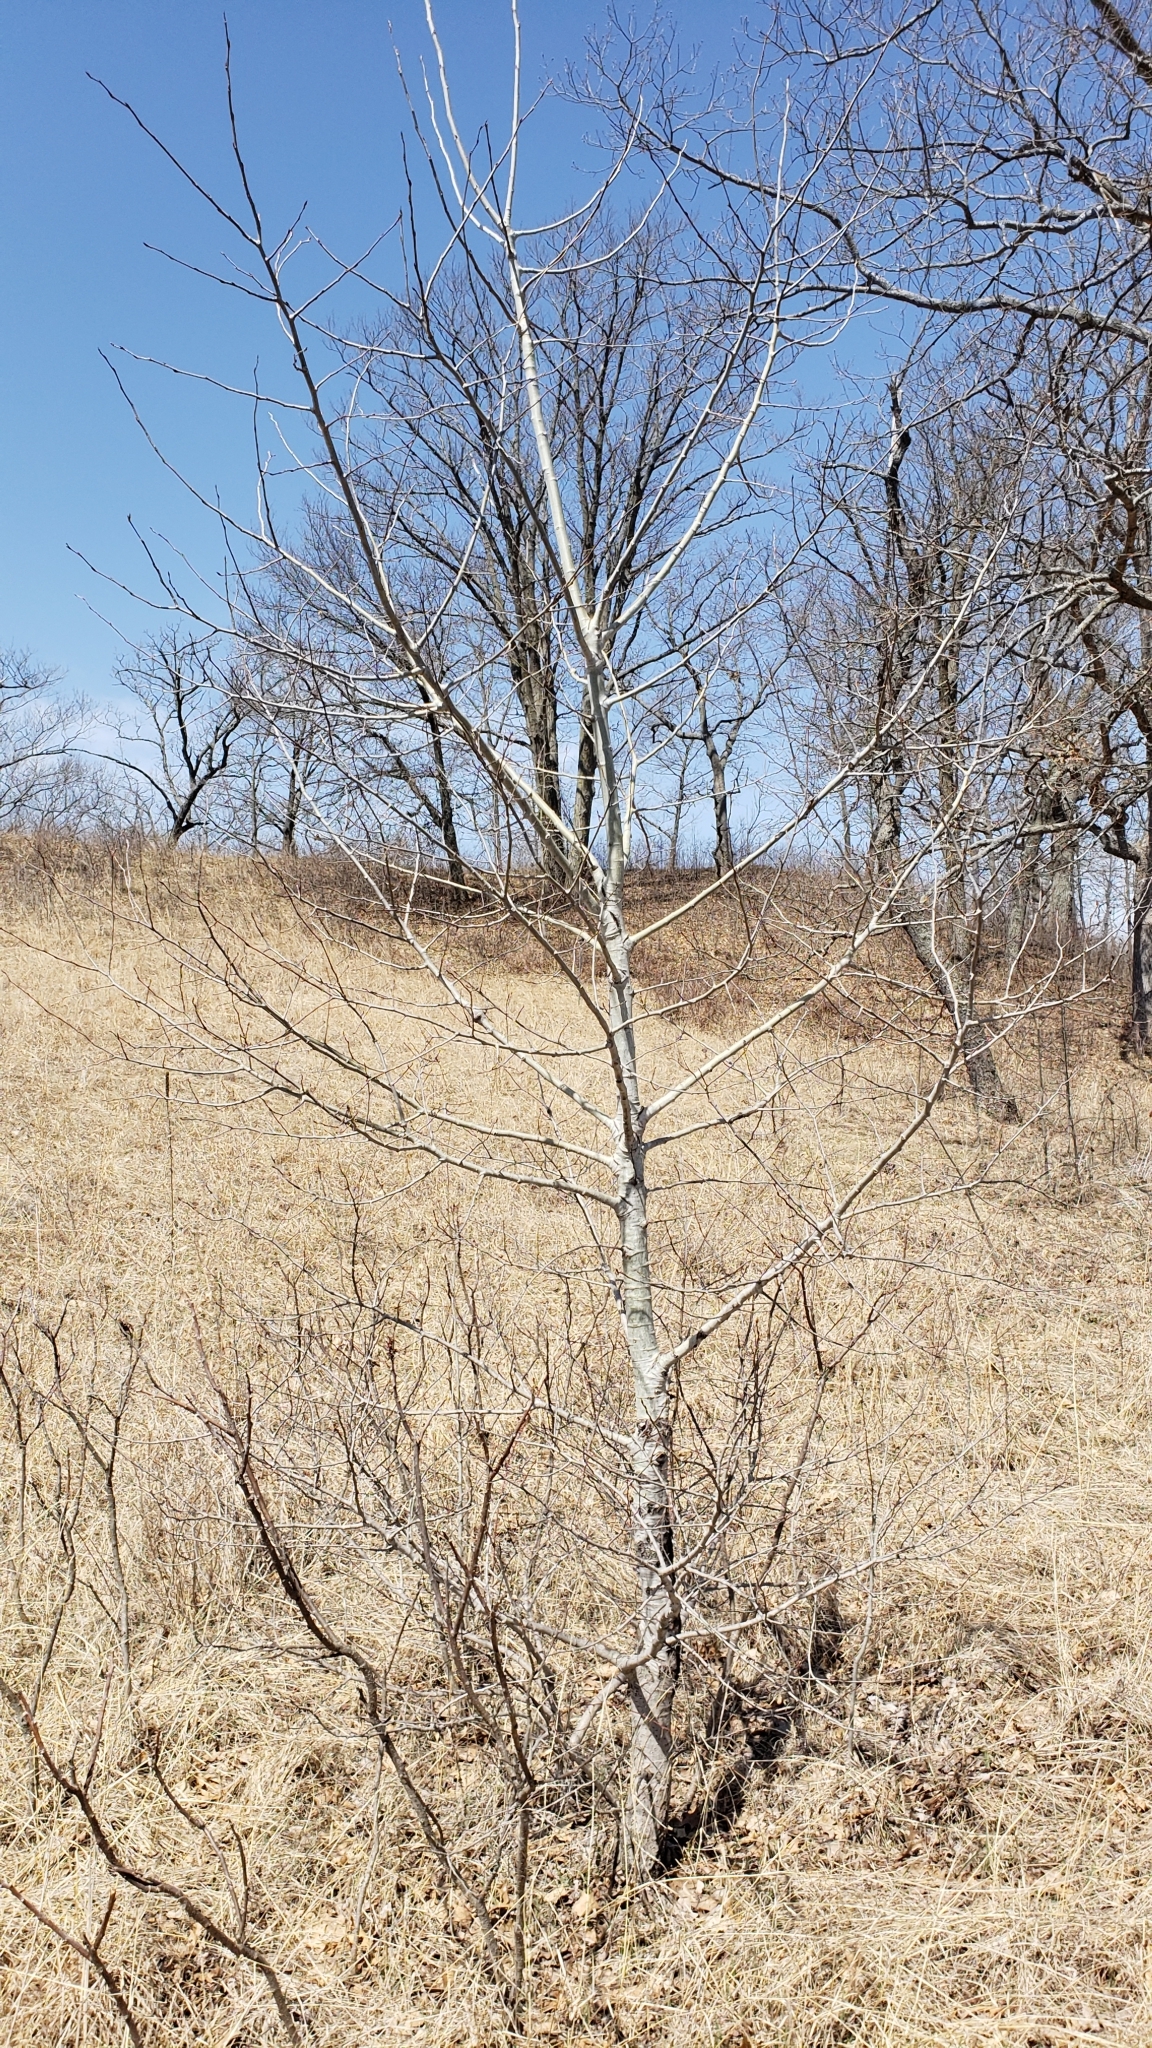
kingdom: Plantae
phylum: Tracheophyta
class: Magnoliopsida
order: Malpighiales
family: Salicaceae
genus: Populus
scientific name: Populus tremuloides
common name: Quaking aspen
